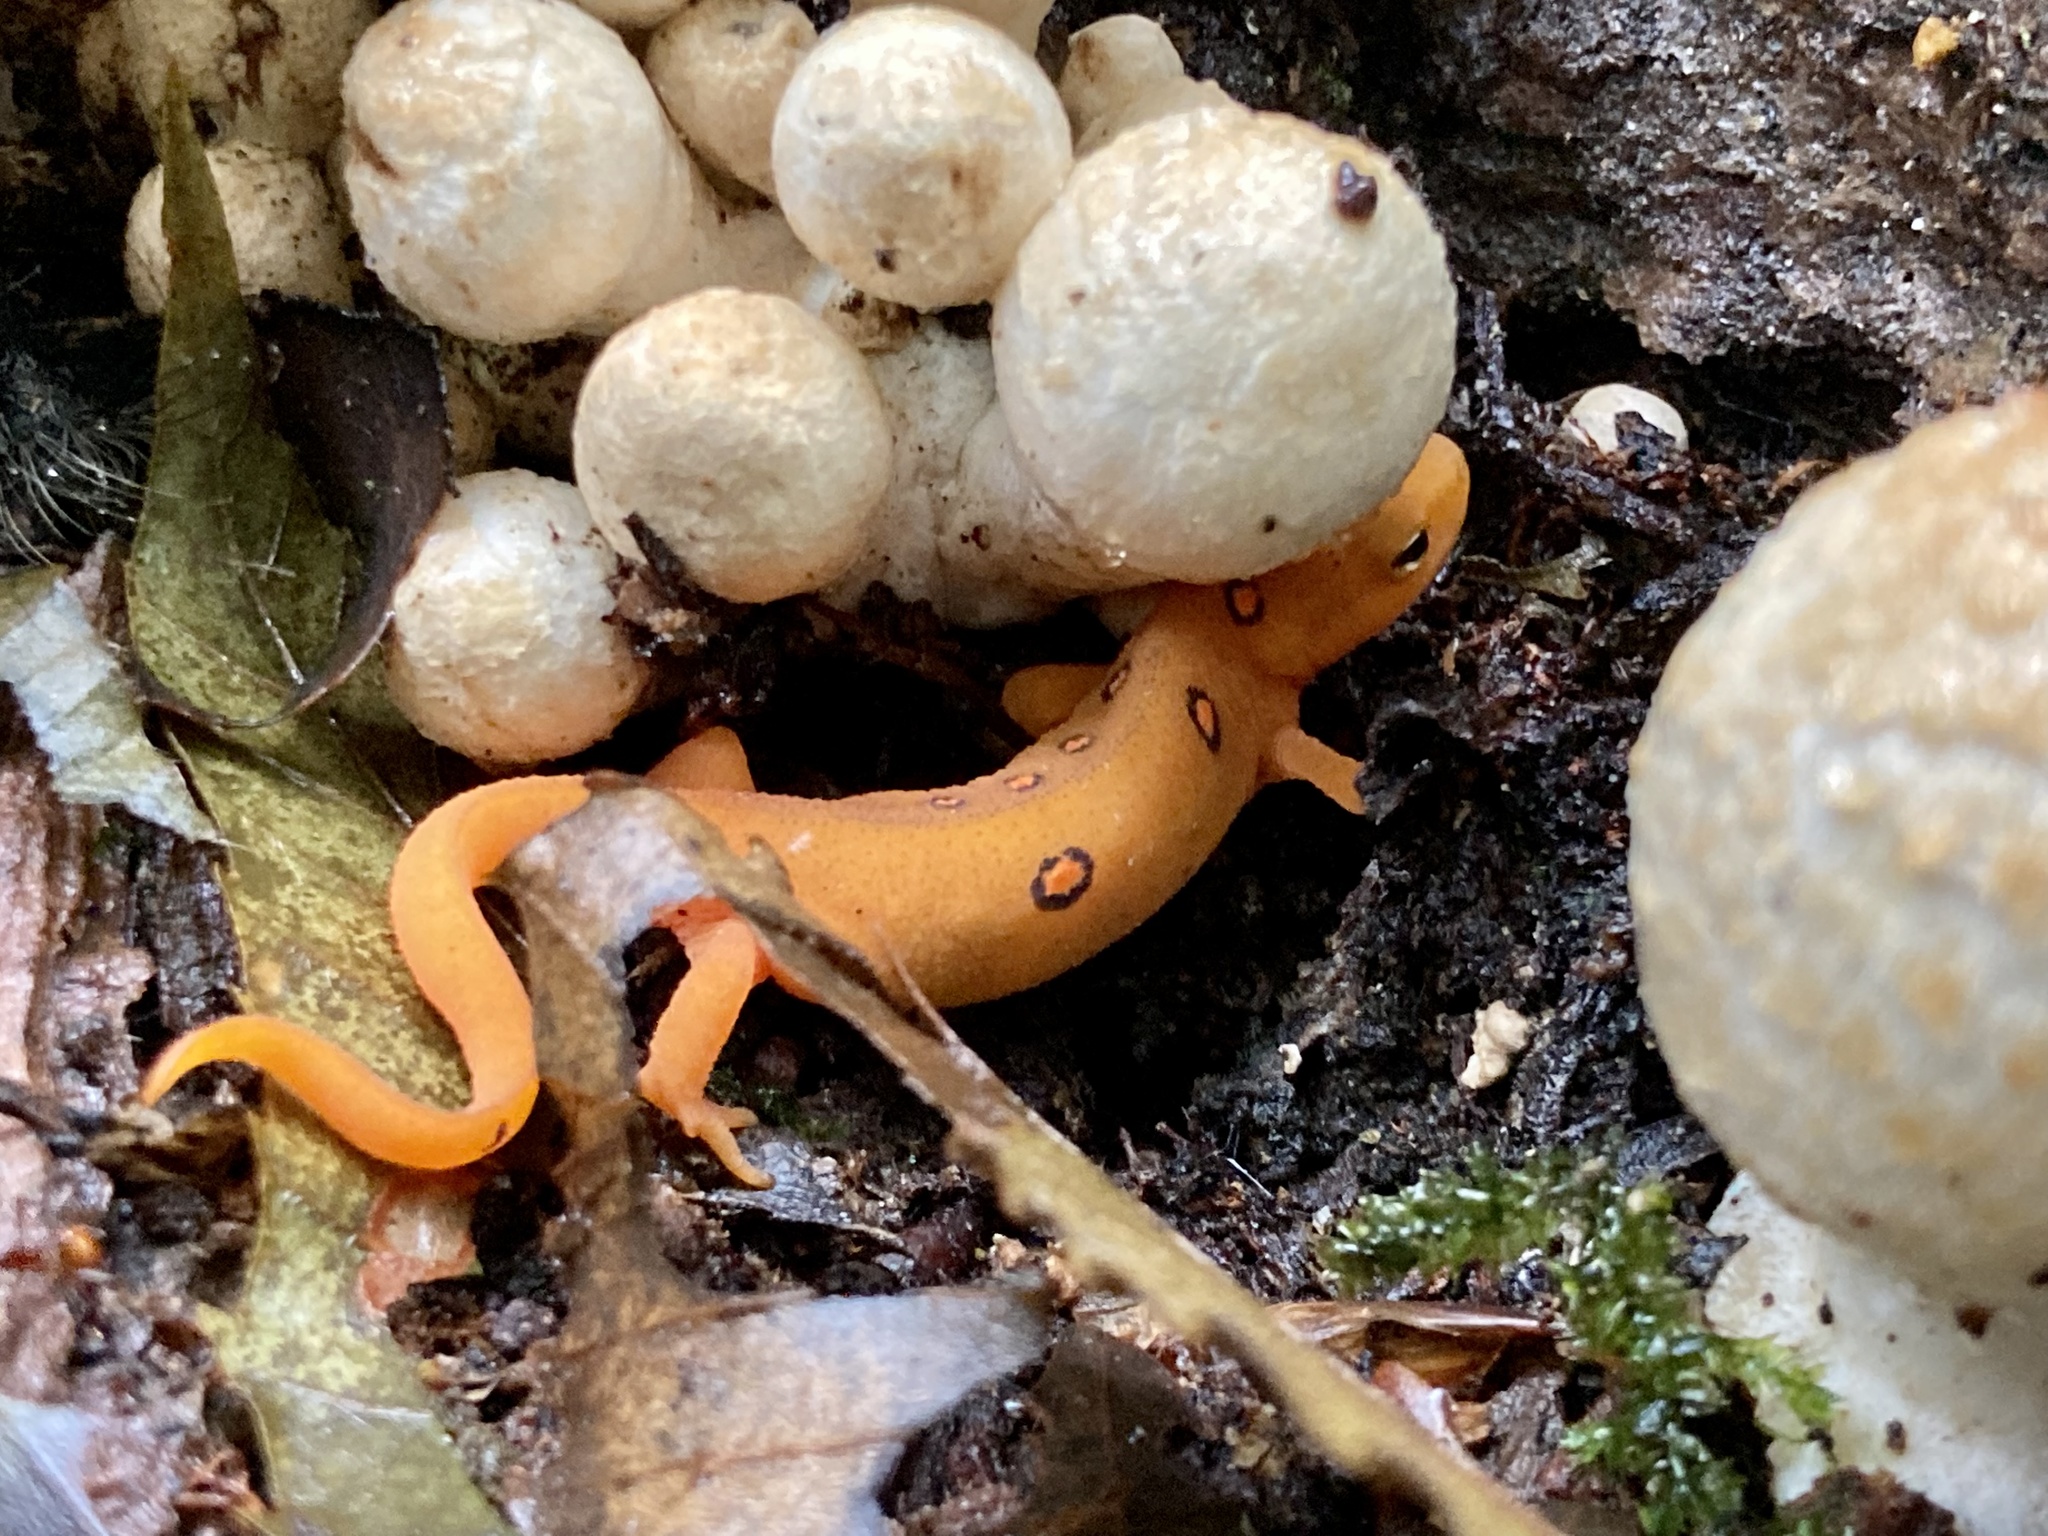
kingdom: Animalia
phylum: Chordata
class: Amphibia
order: Caudata
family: Salamandridae
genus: Notophthalmus
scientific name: Notophthalmus viridescens
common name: Eastern newt
